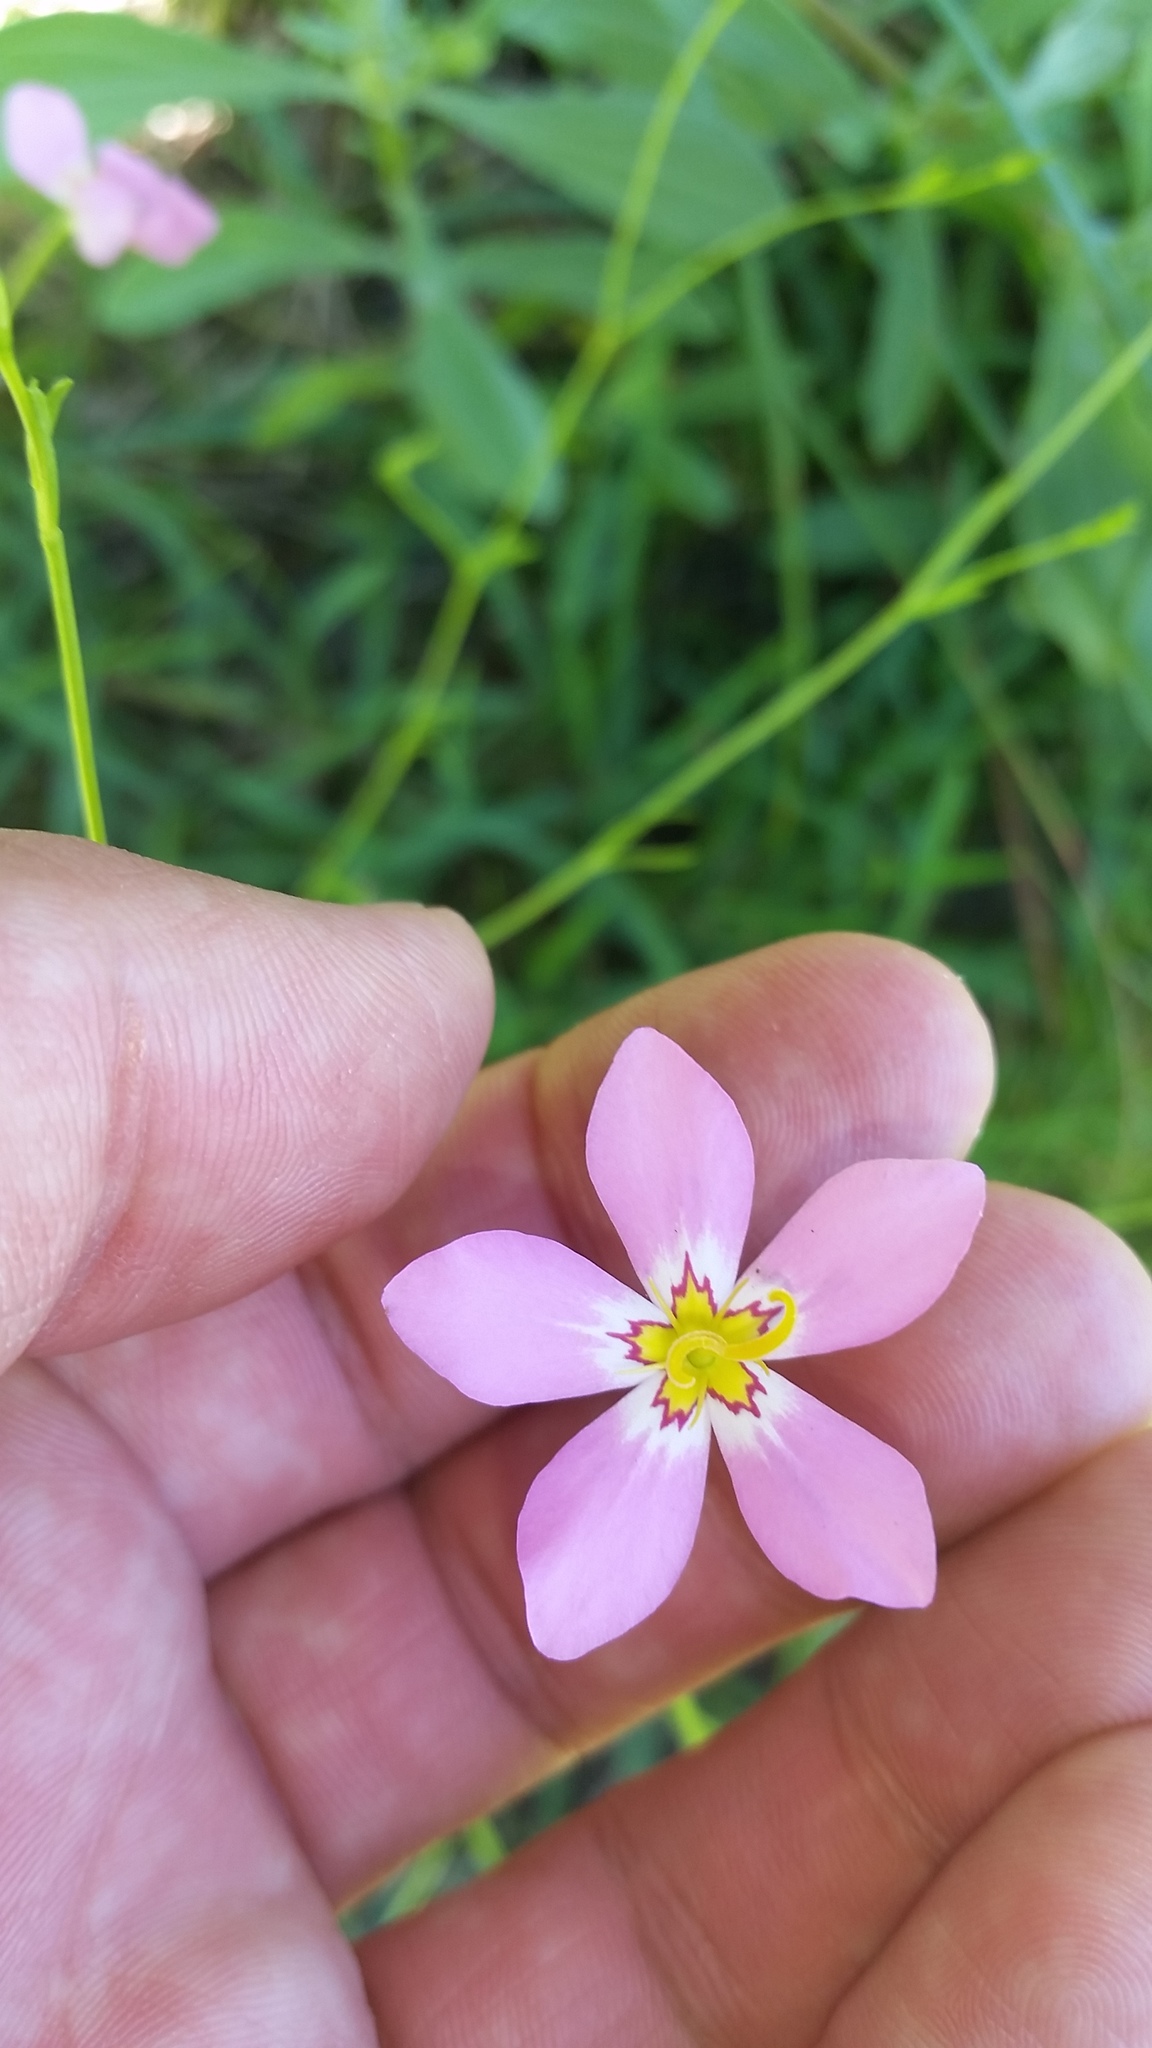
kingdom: Plantae
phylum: Tracheophyta
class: Magnoliopsida
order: Gentianales
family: Gentianaceae
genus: Sabatia
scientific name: Sabatia stellaris
